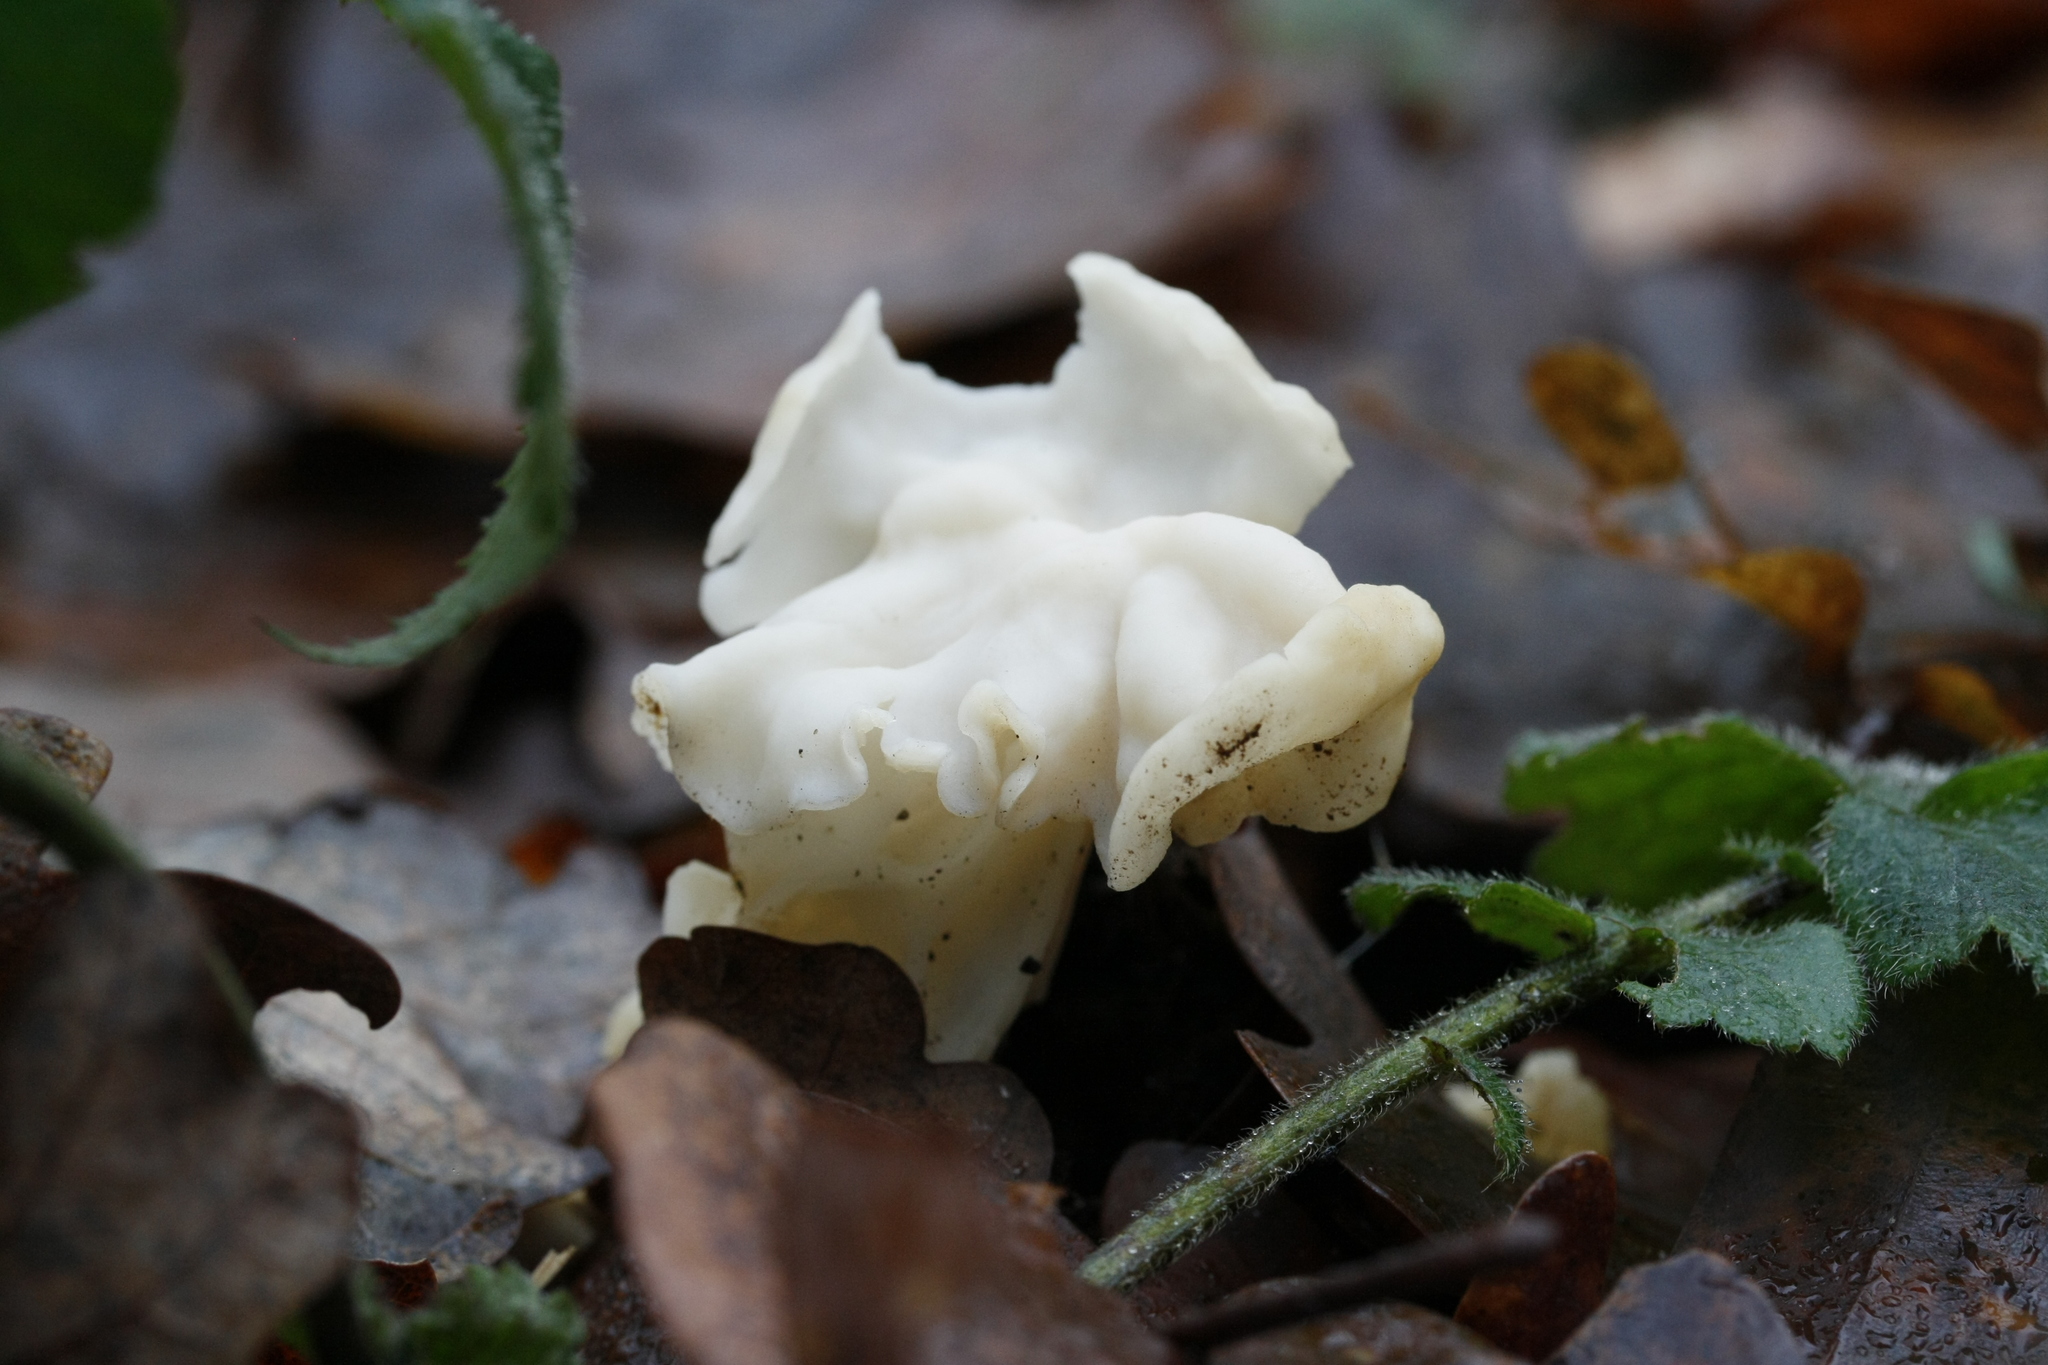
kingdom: Fungi
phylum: Ascomycota
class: Pezizomycetes
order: Pezizales
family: Helvellaceae
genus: Helvella
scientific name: Helvella crispa
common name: White saddle
